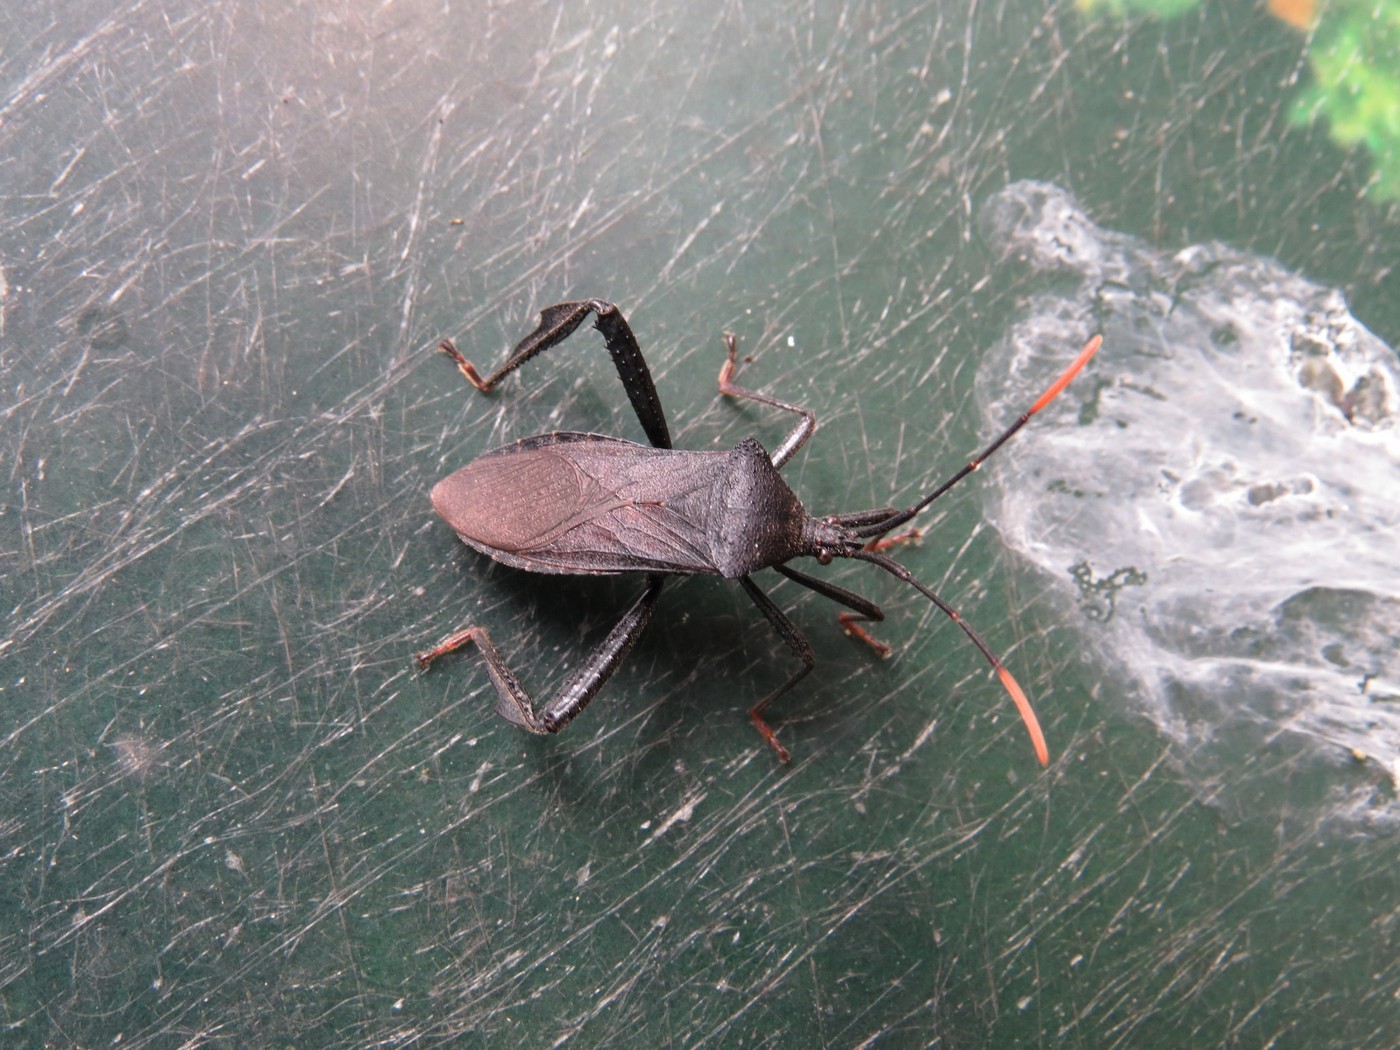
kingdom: Animalia
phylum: Arthropoda
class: Insecta
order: Hemiptera
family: Coreidae
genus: Acanthocephala
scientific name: Acanthocephala terminalis
